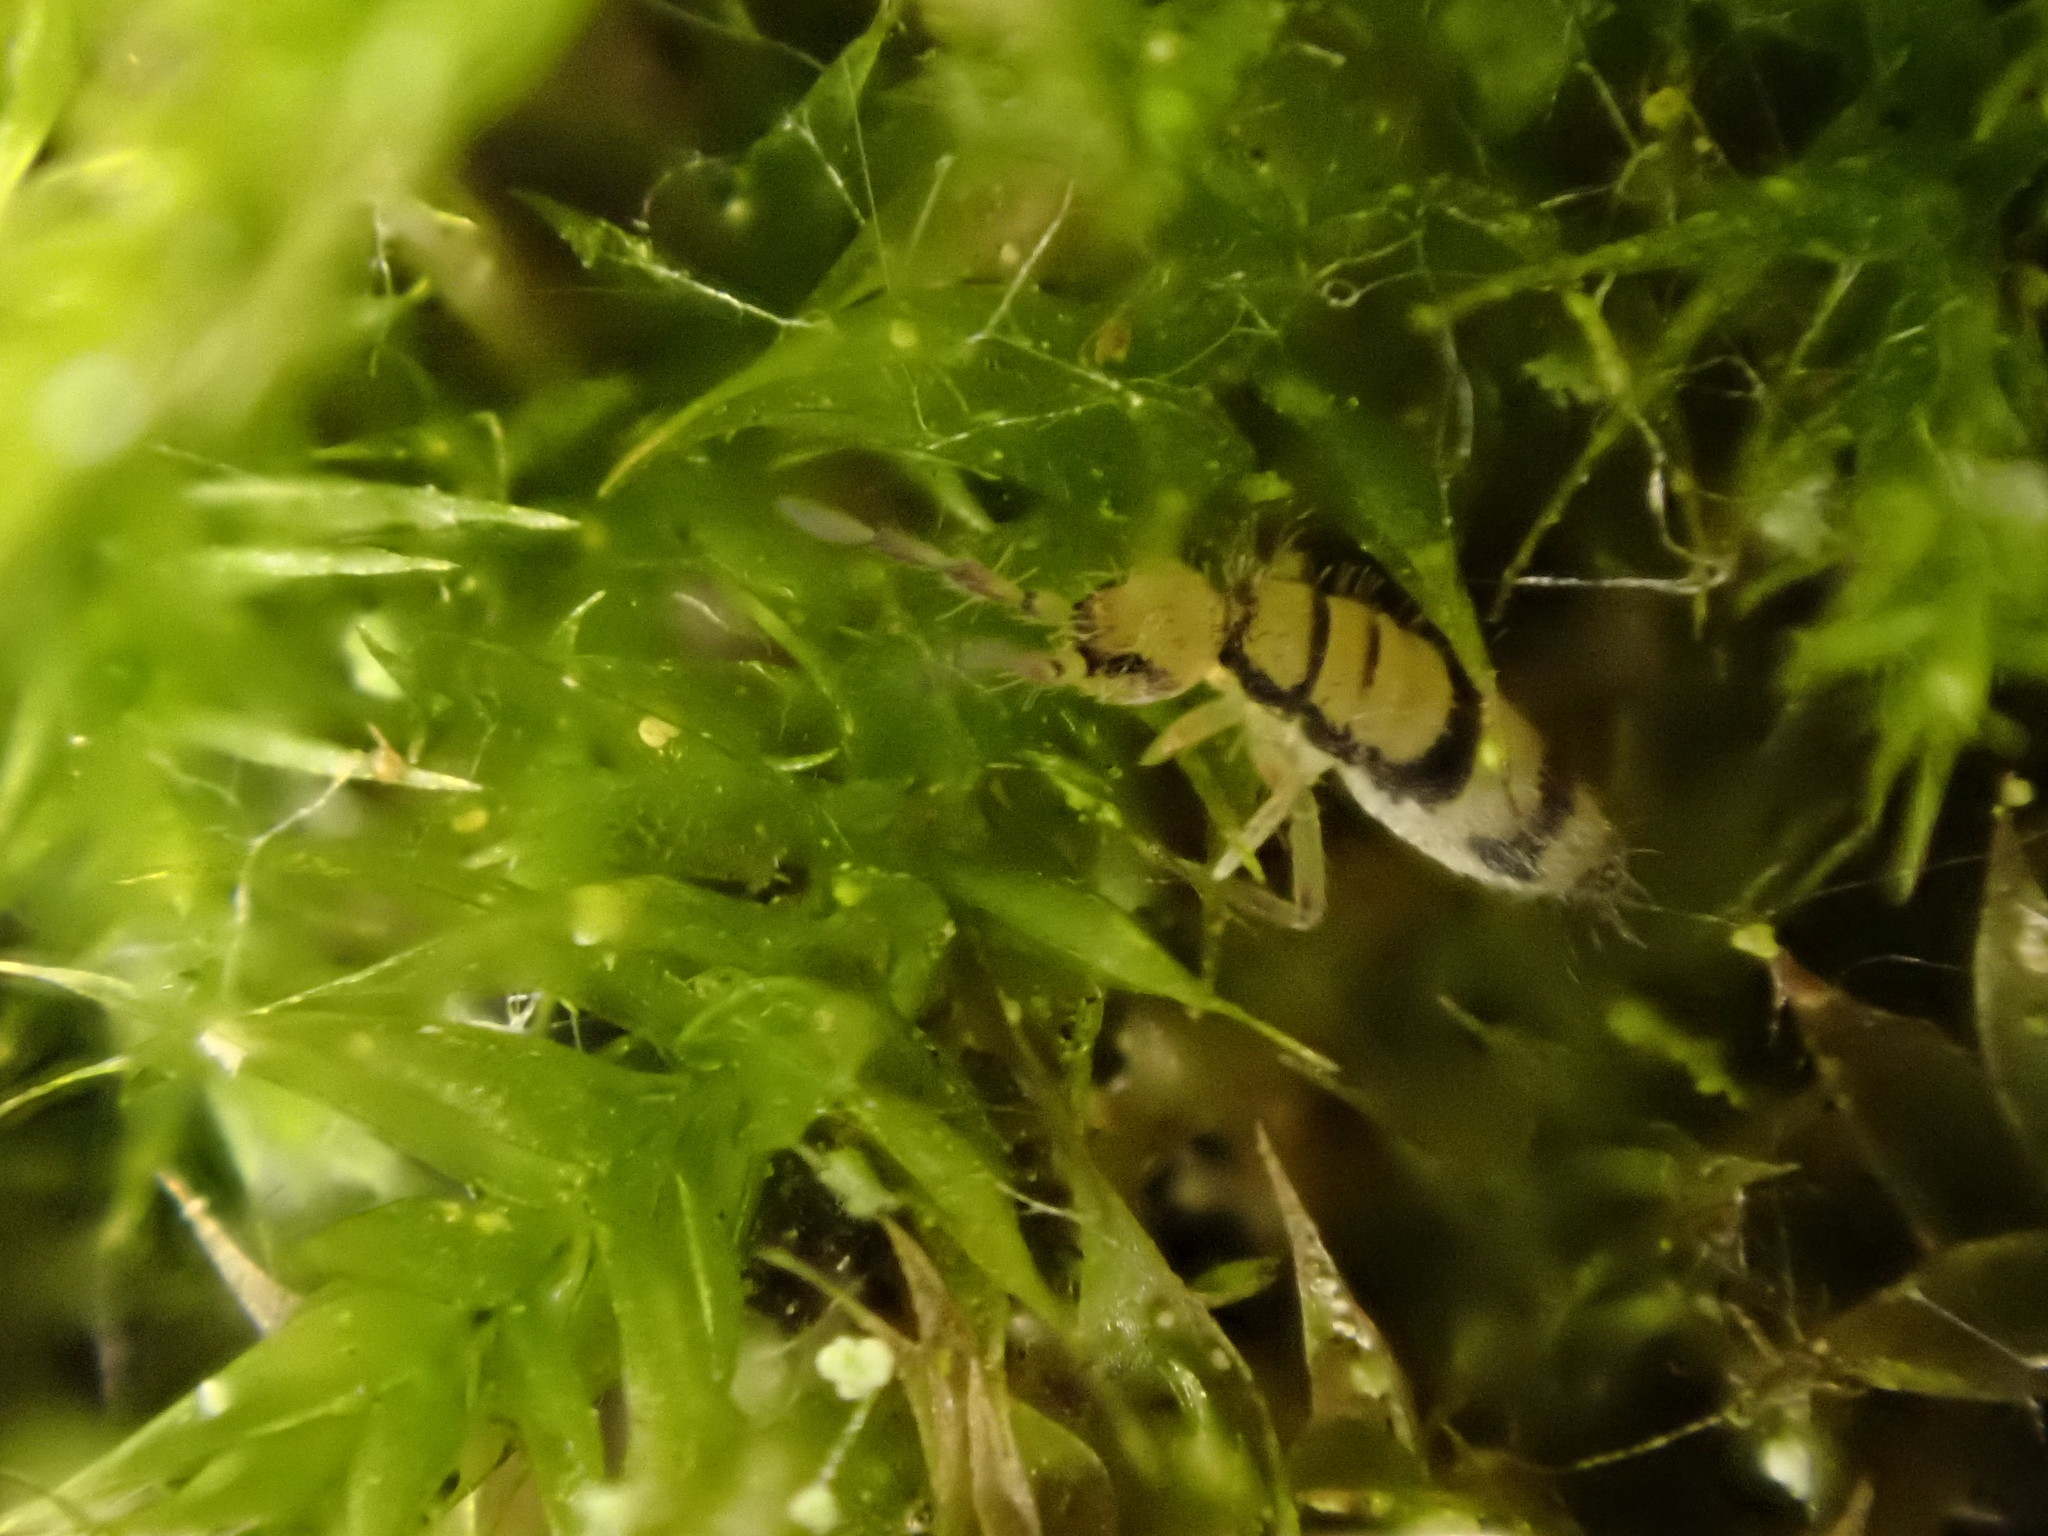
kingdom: Animalia
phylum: Arthropoda
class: Collembola
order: Entomobryomorpha
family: Entomobryidae
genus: Entomobrya
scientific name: Entomobrya corticalis
